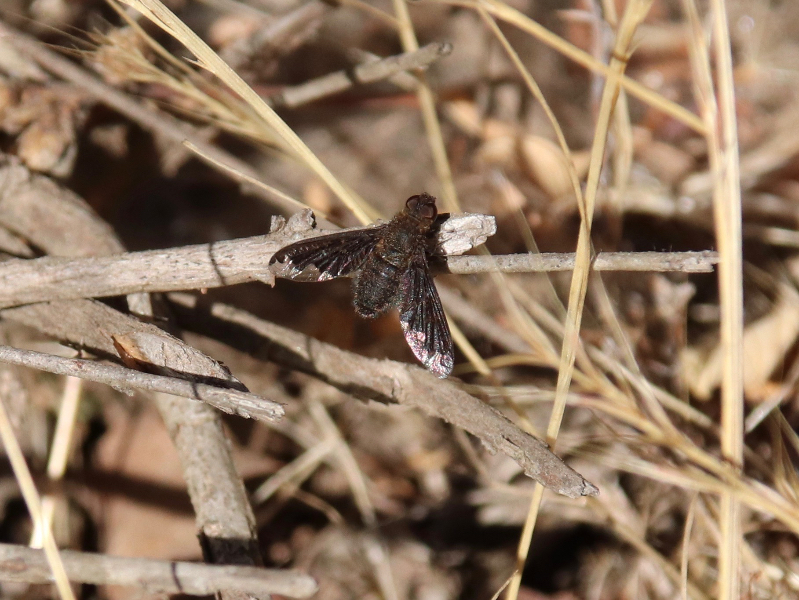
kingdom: Animalia
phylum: Arthropoda
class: Insecta
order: Diptera
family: Bombyliidae
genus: Hemipenthes
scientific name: Hemipenthes sinuosus
